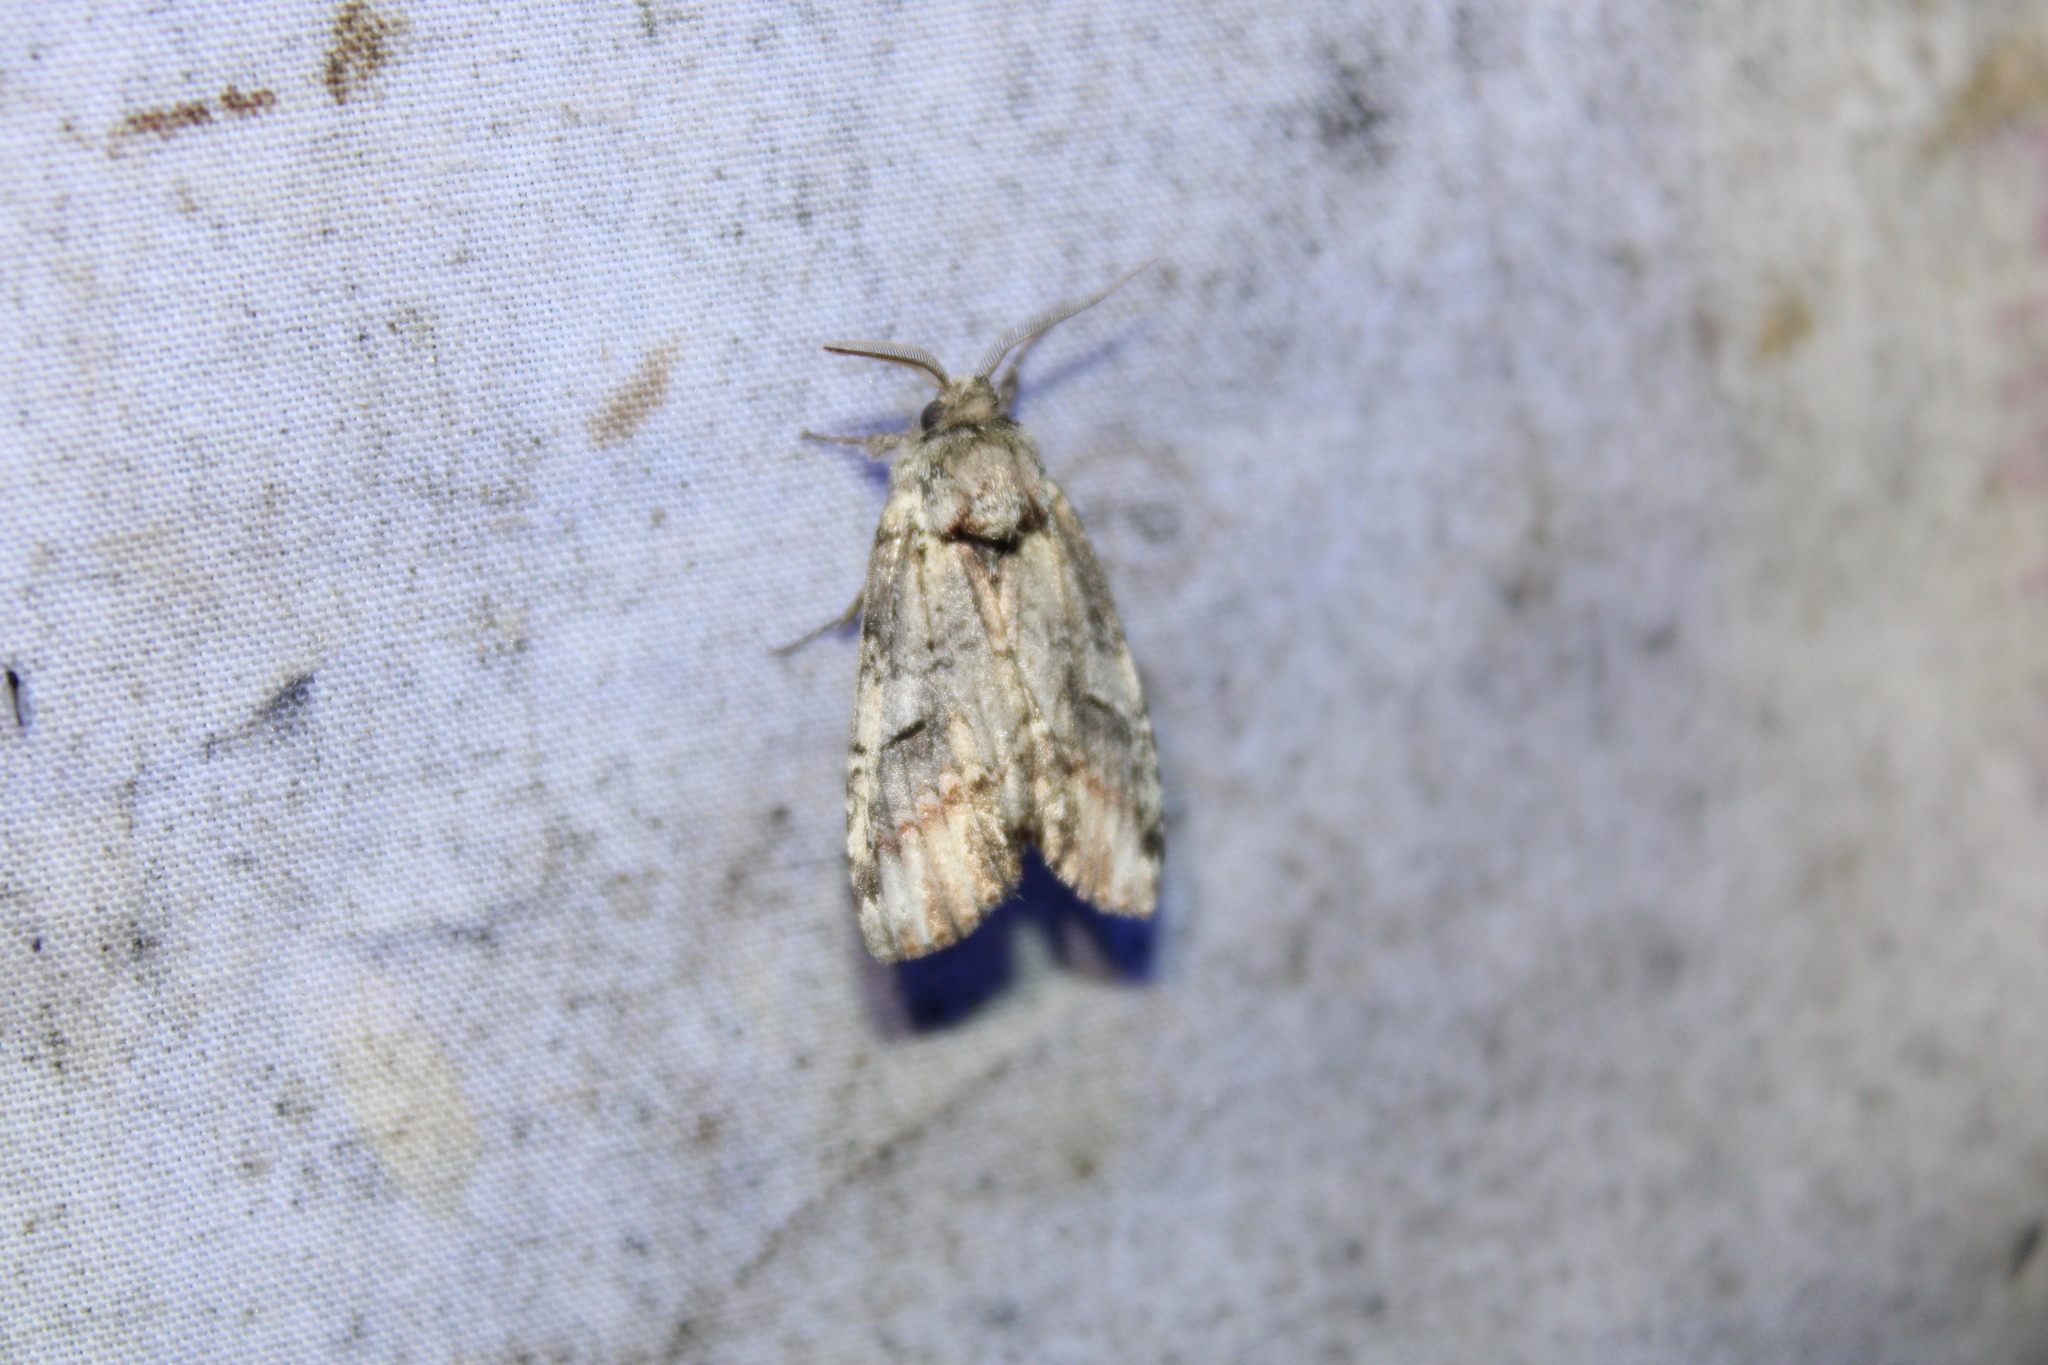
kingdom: Animalia
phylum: Arthropoda
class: Insecta
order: Lepidoptera
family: Notodontidae
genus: Schizura
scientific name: Schizura
